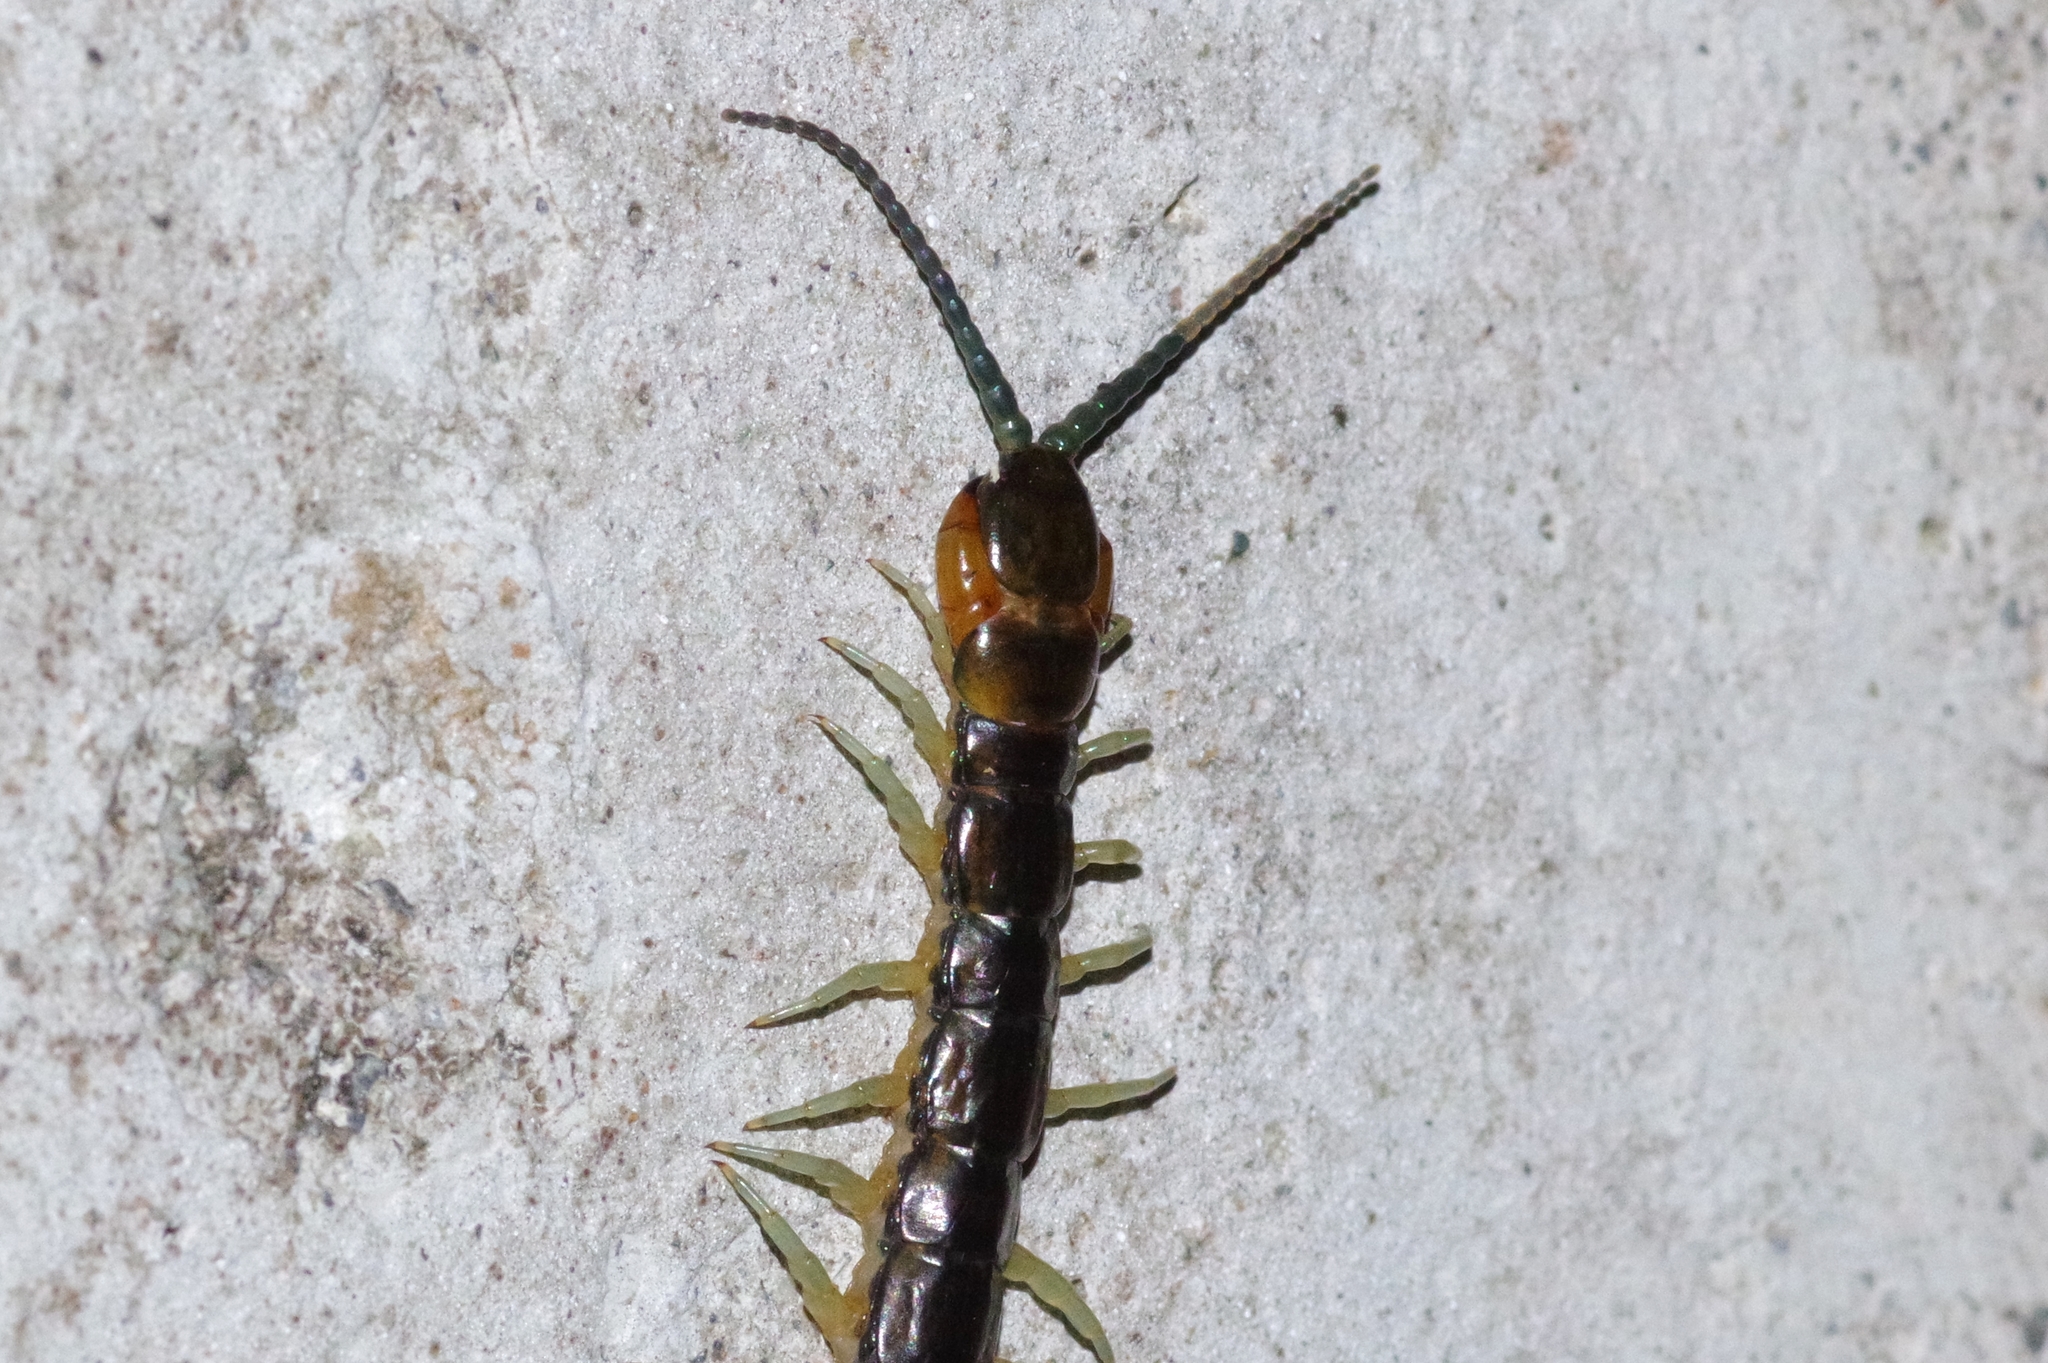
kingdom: Animalia
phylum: Arthropoda
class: Chilopoda
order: Scolopendromorpha
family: Scolopendridae
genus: Scolopendra
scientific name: Scolopendra japonica
